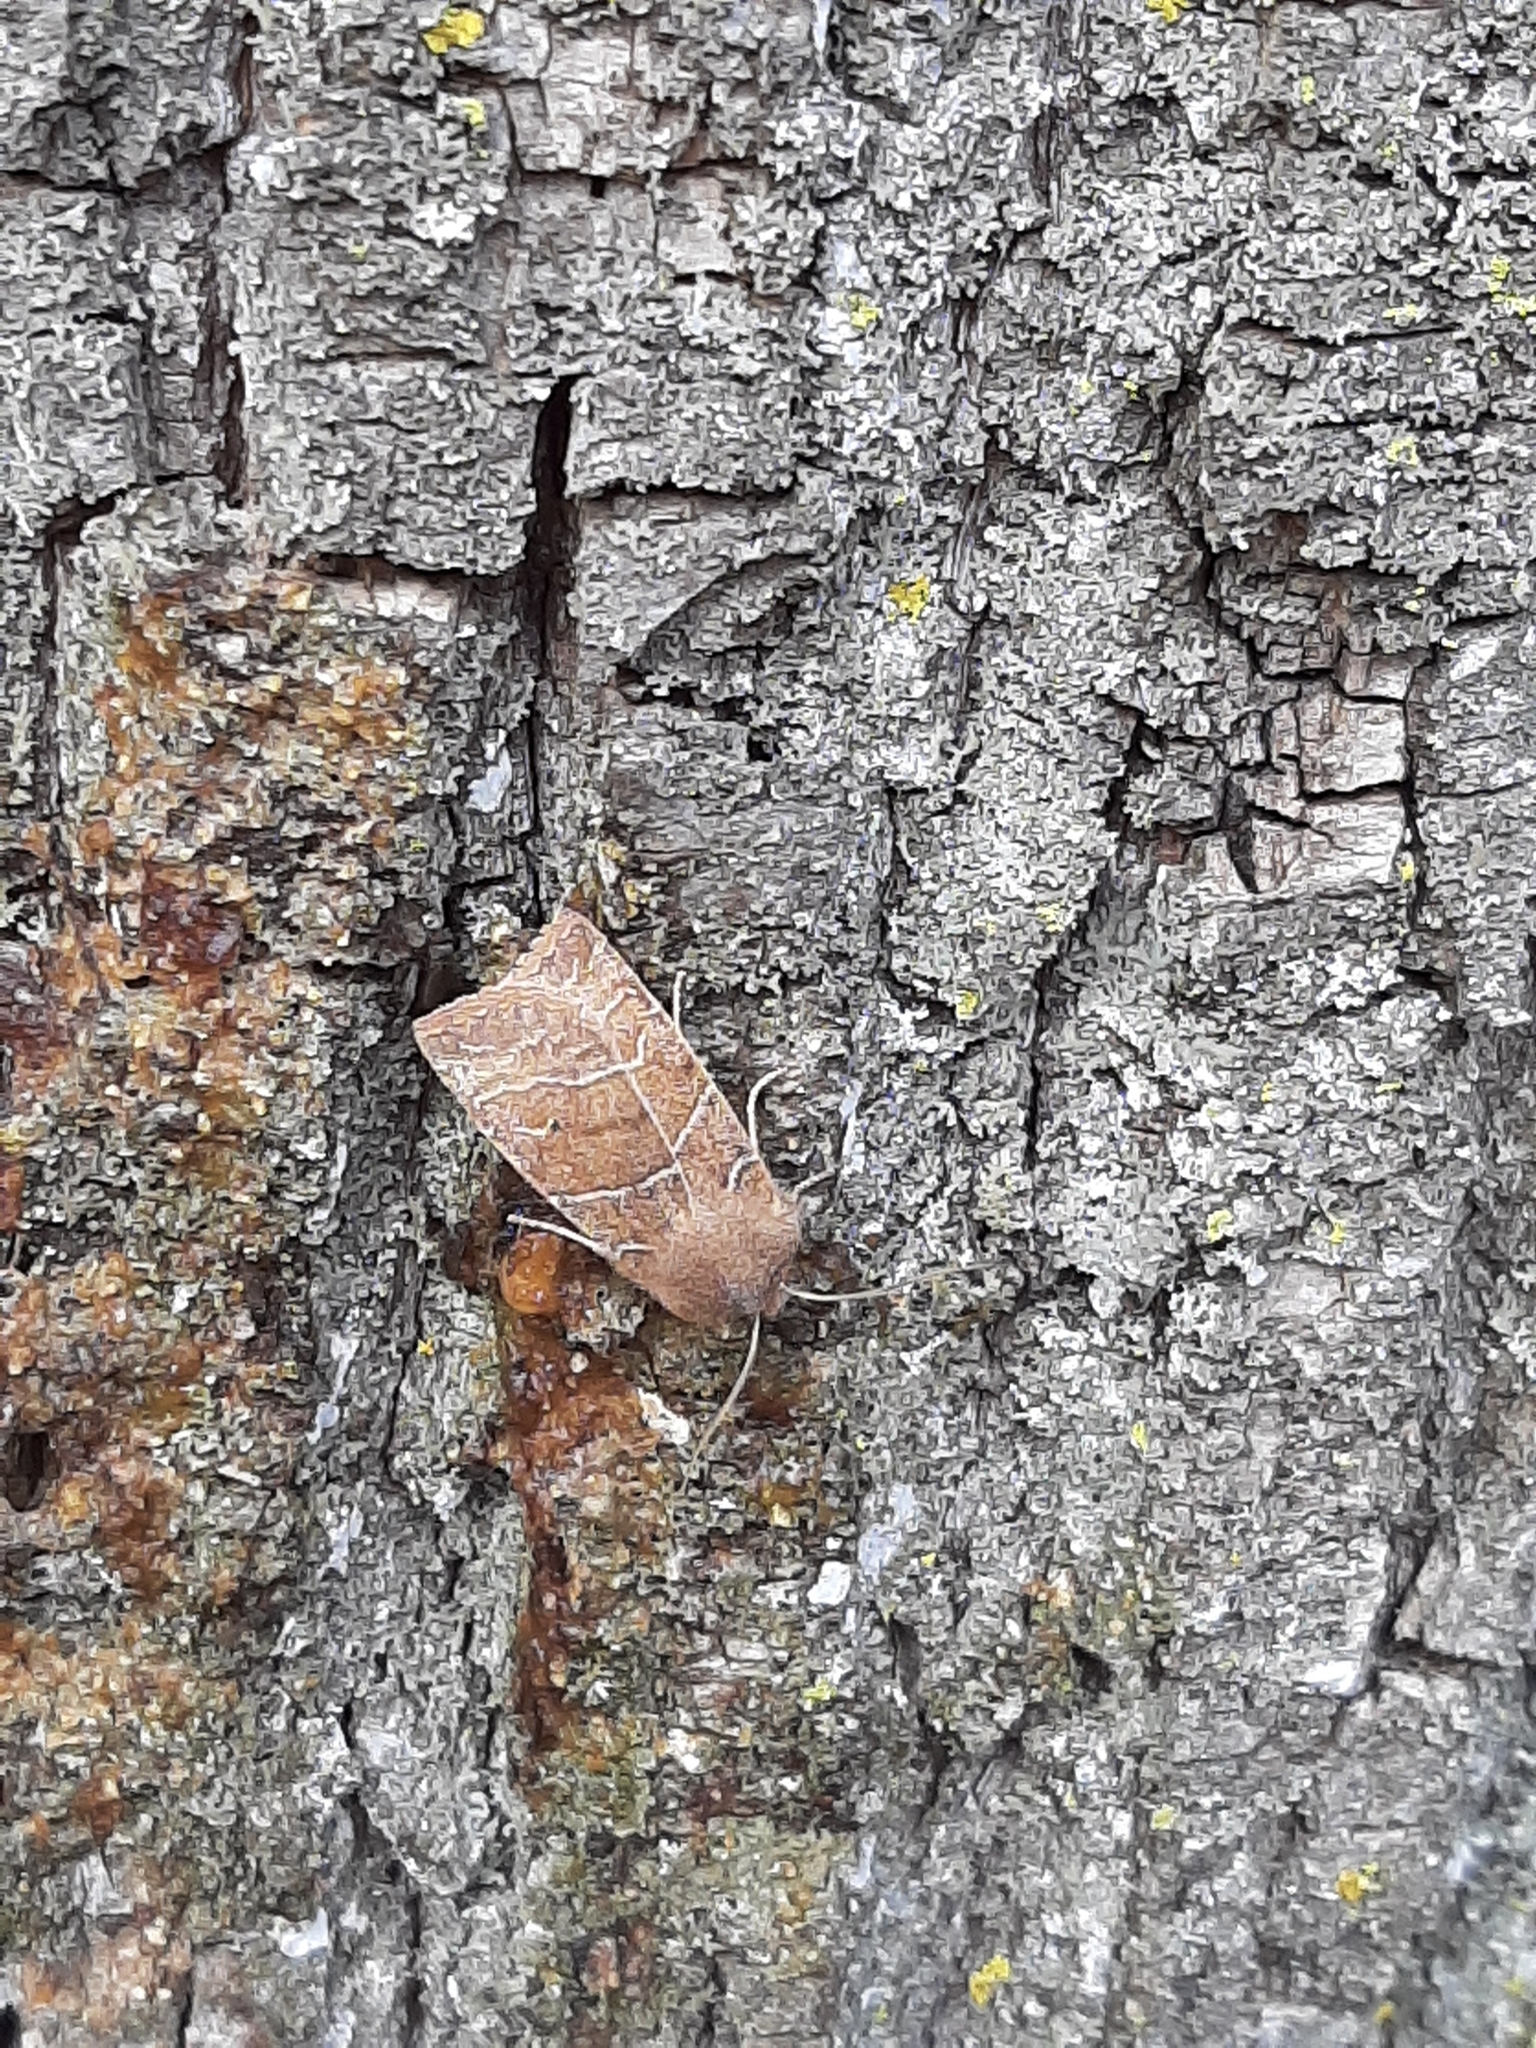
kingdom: Animalia
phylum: Arthropoda
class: Insecta
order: Lepidoptera
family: Noctuidae
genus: Eupsilia
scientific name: Eupsilia morrisoni
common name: Morrison's sallow
